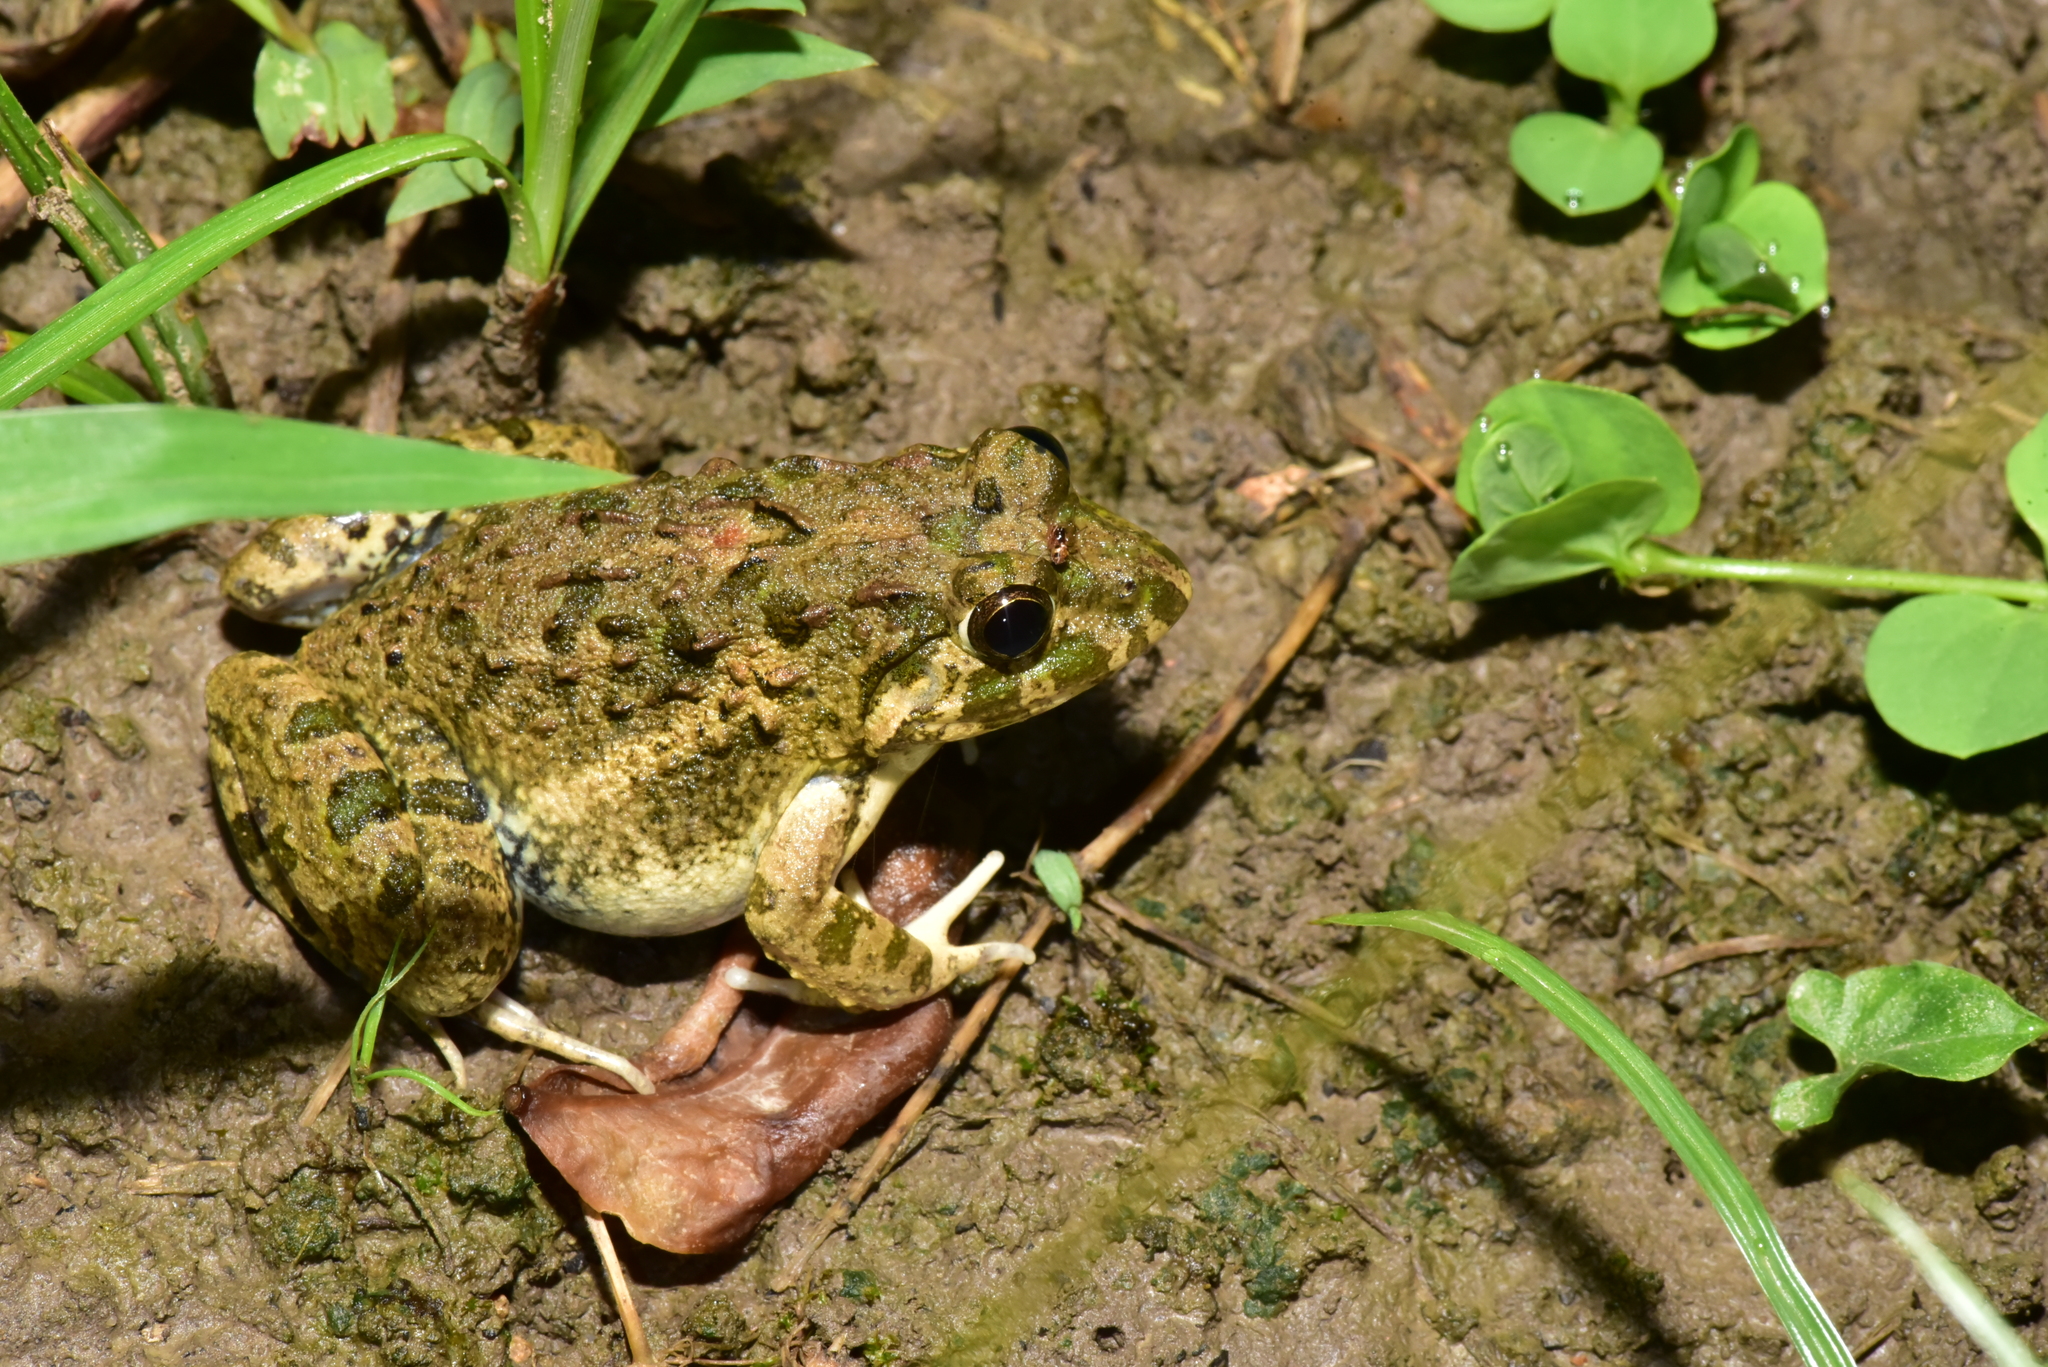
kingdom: Animalia
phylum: Chordata
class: Amphibia
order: Anura
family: Dicroglossidae
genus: Fejervarya
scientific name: Fejervarya limnocharis
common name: Asian grass frog/common pond frog/field frog/grass frog/indian rice frog
